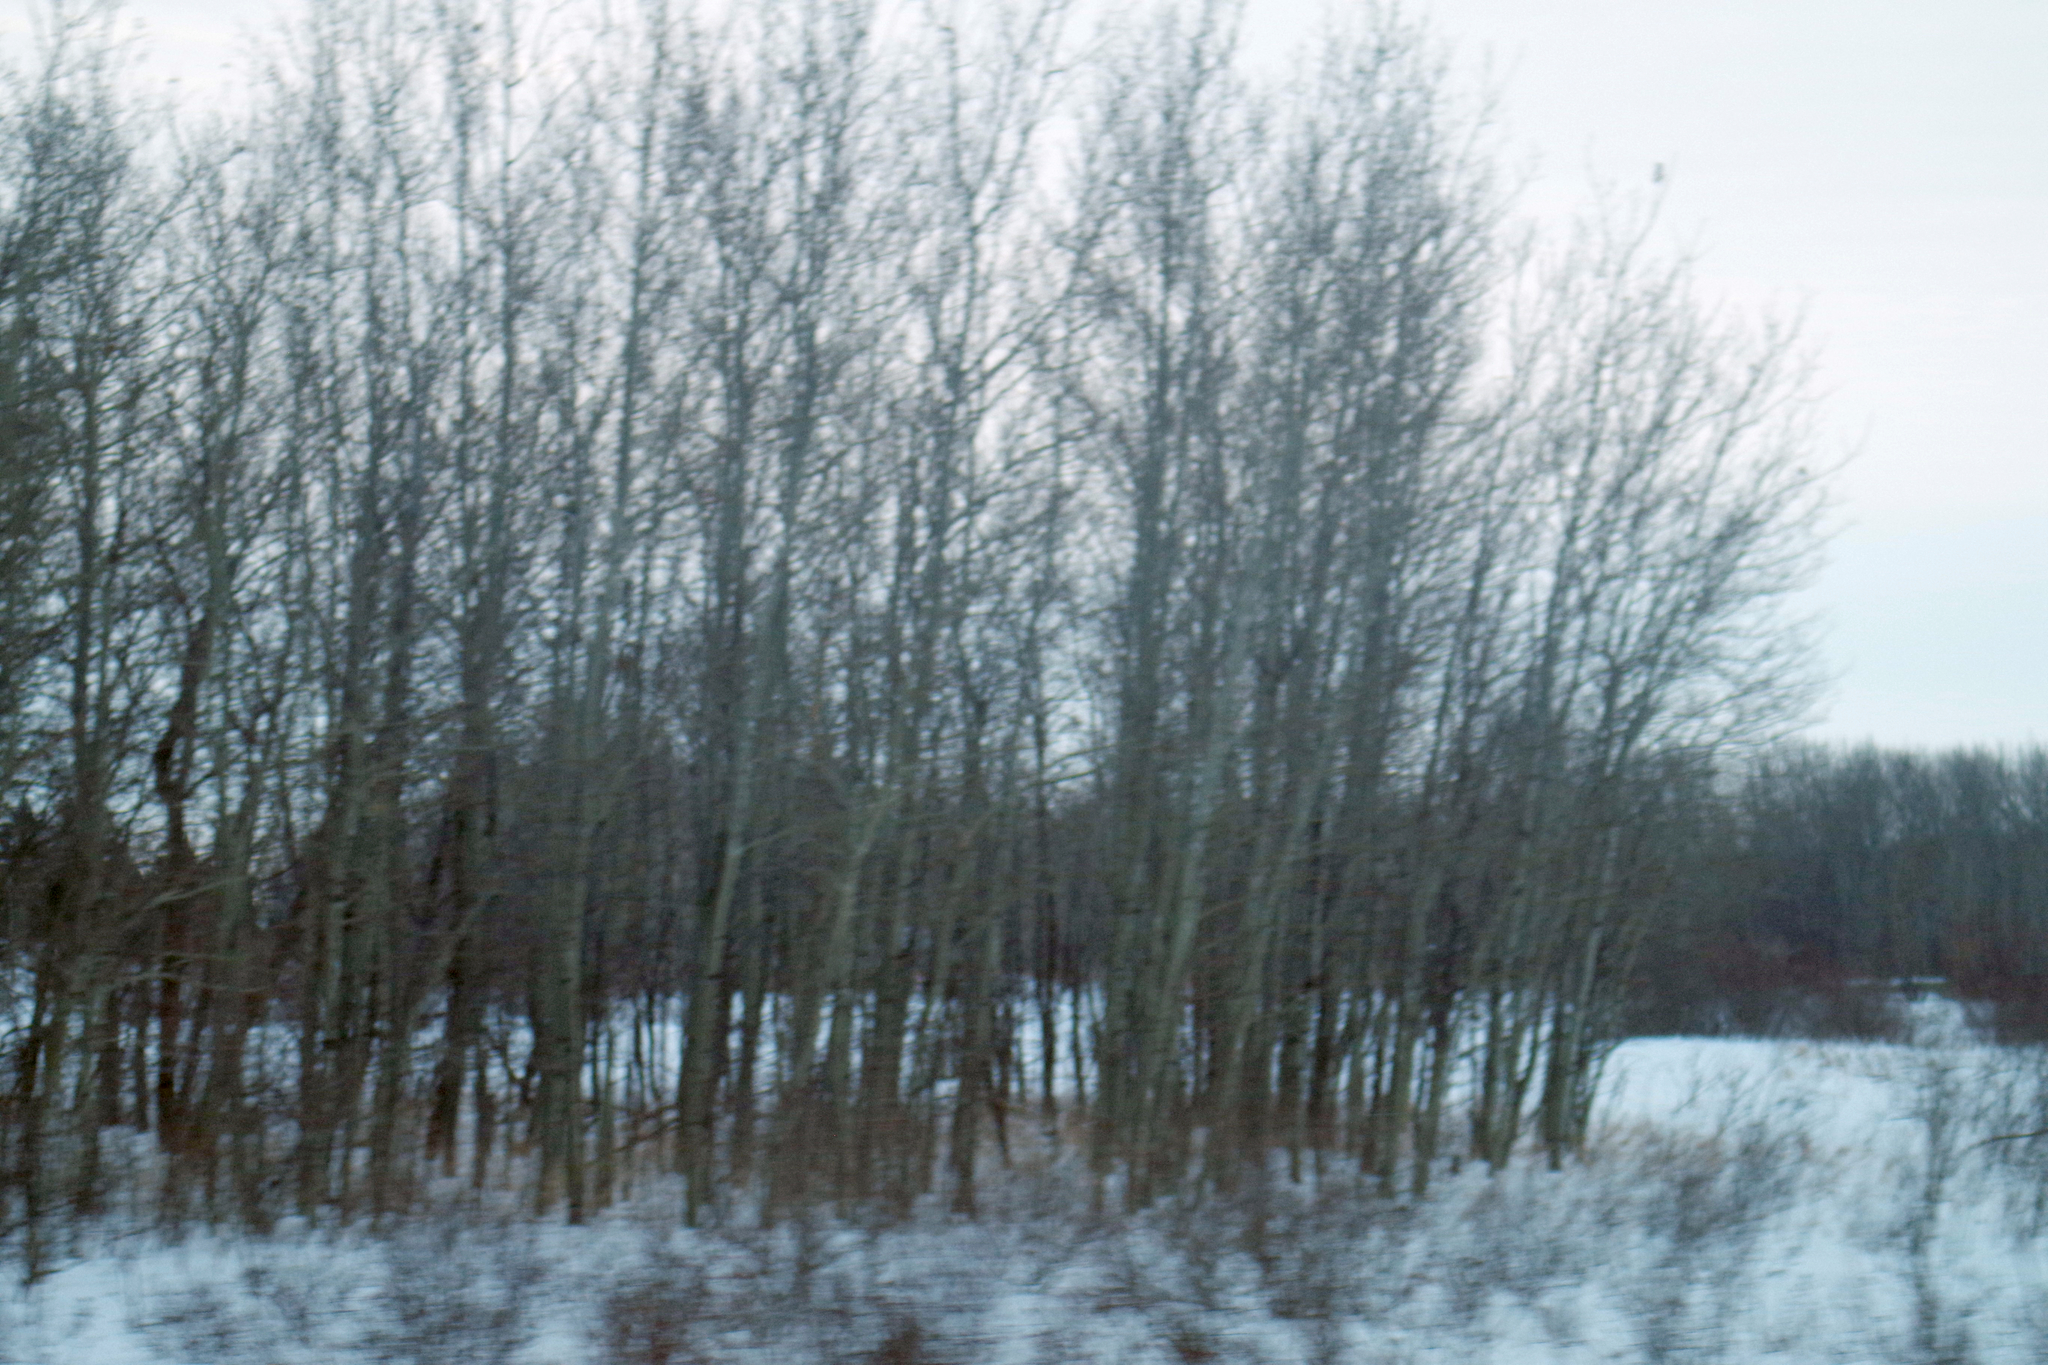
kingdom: Plantae
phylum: Tracheophyta
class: Magnoliopsida
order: Malpighiales
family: Salicaceae
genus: Populus
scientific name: Populus tremuloides
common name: Quaking aspen
